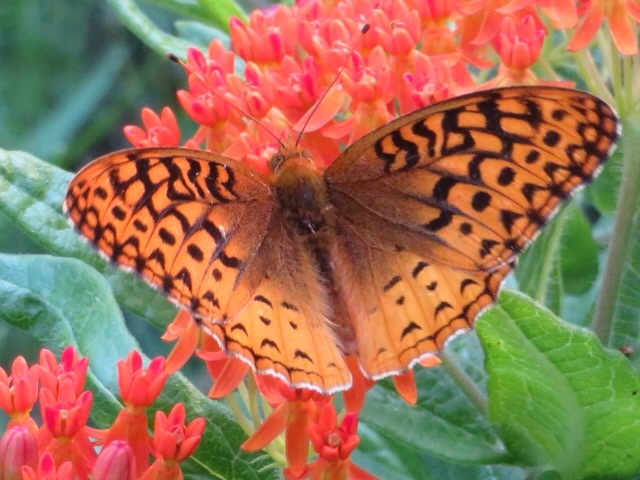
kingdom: Animalia
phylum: Arthropoda
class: Insecta
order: Lepidoptera
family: Nymphalidae
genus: Speyeria
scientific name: Speyeria cybele
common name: Great spangled fritillary
